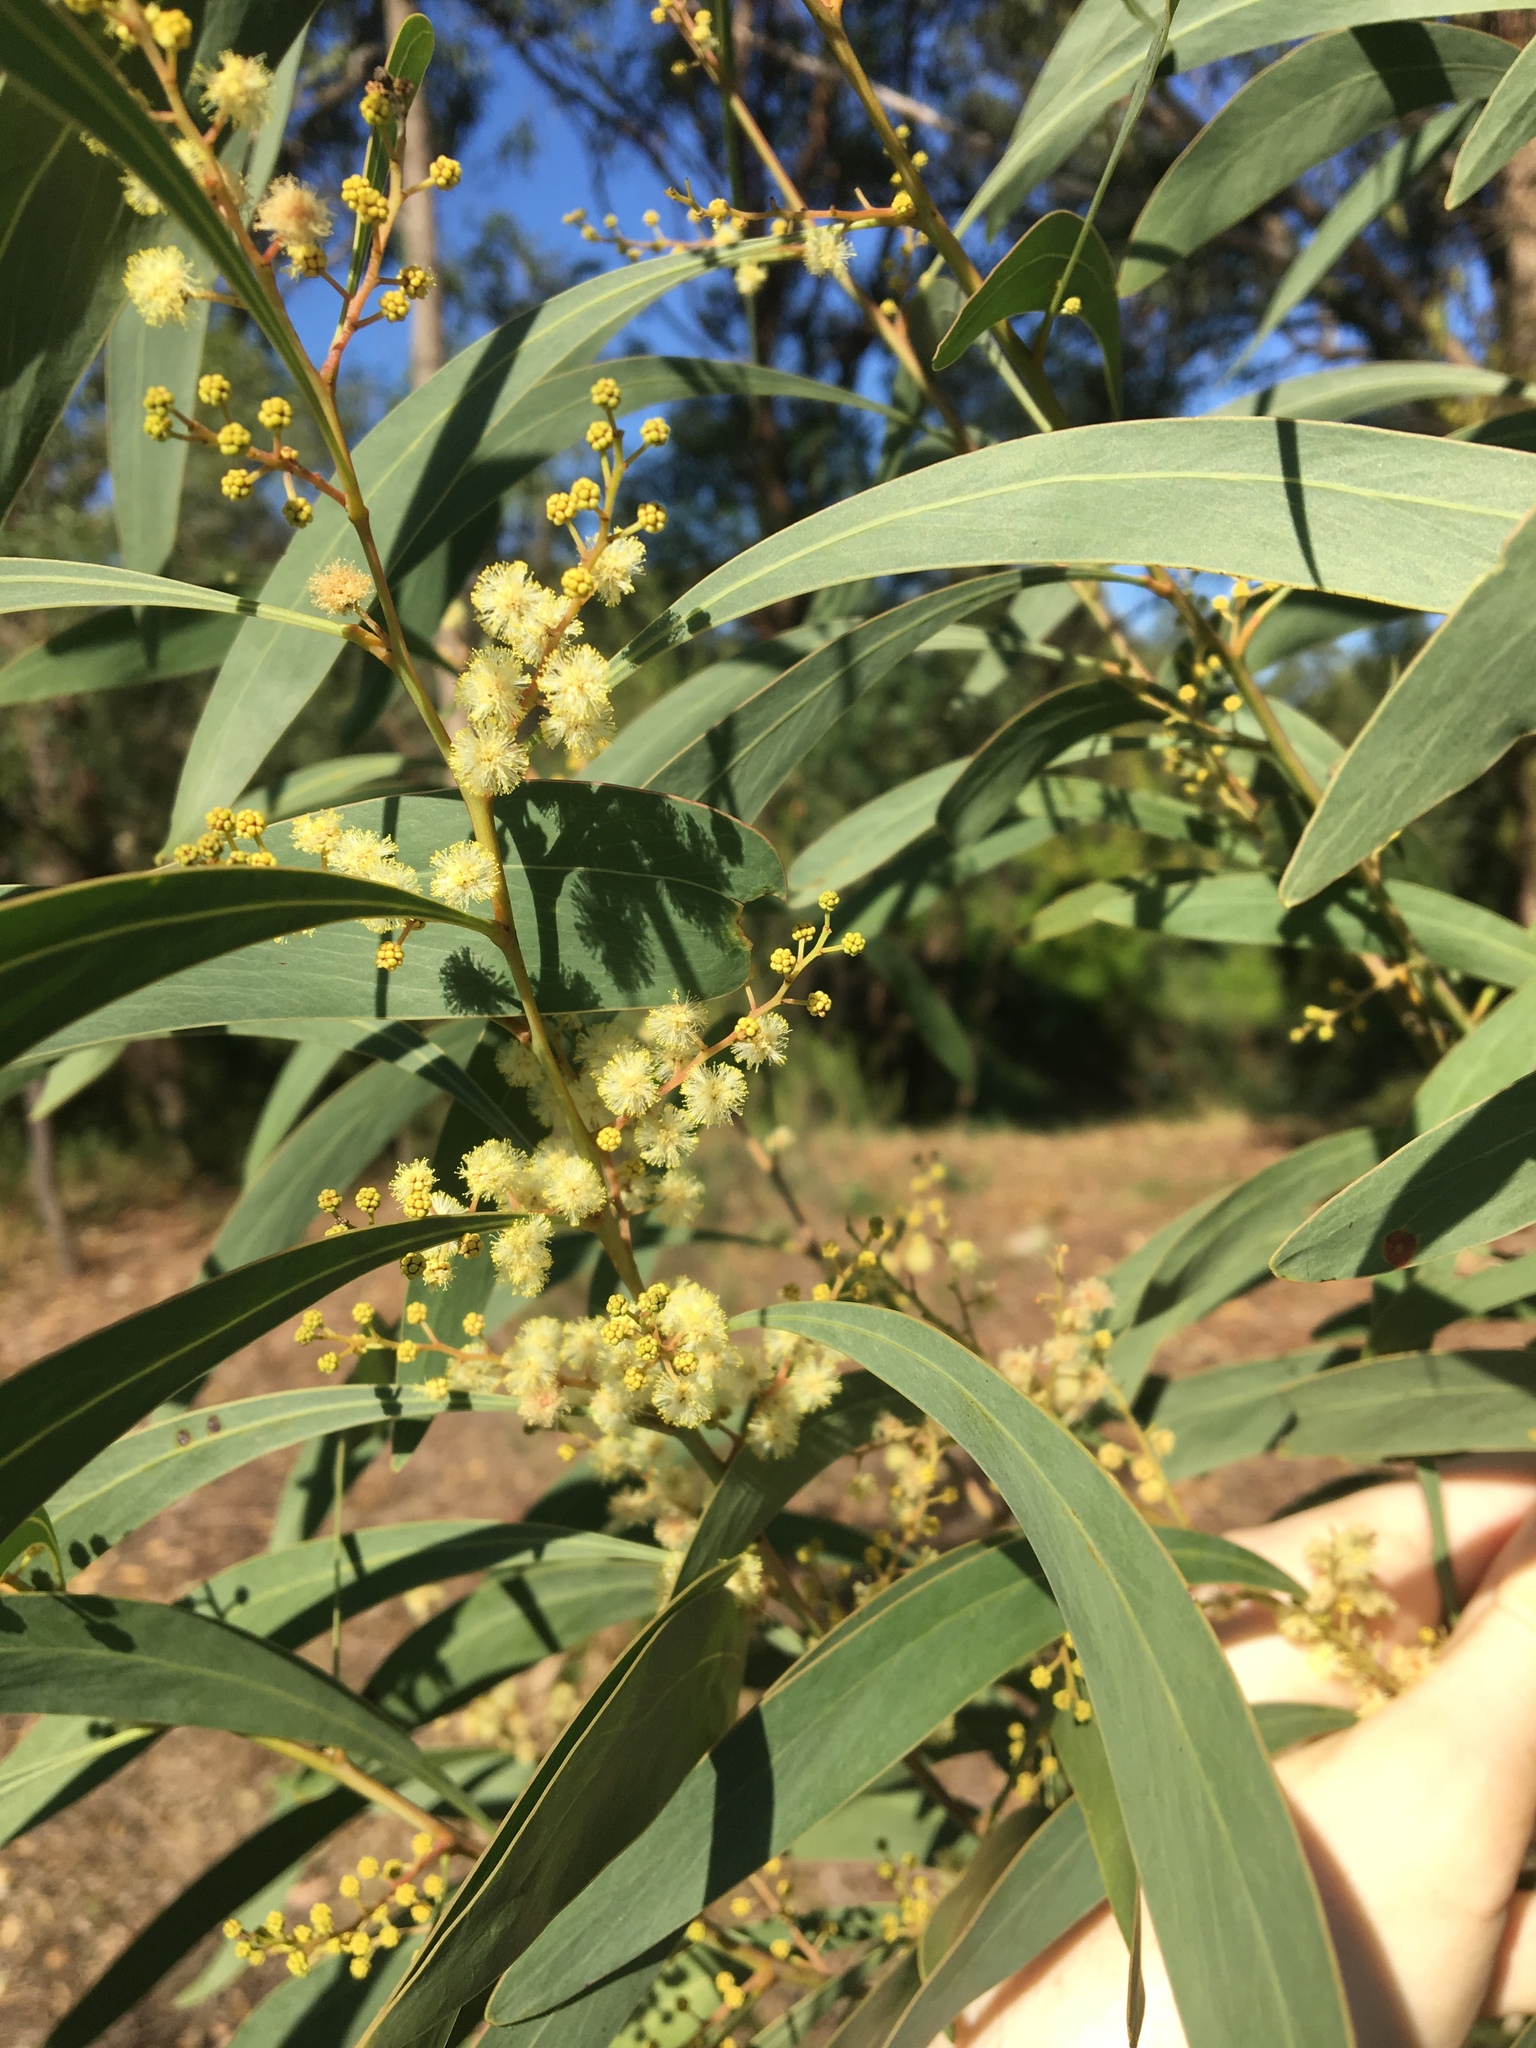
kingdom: Plantae
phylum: Tracheophyta
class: Magnoliopsida
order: Fabales
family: Fabaceae
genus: Acacia
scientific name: Acacia falcata
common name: Burra acacia
